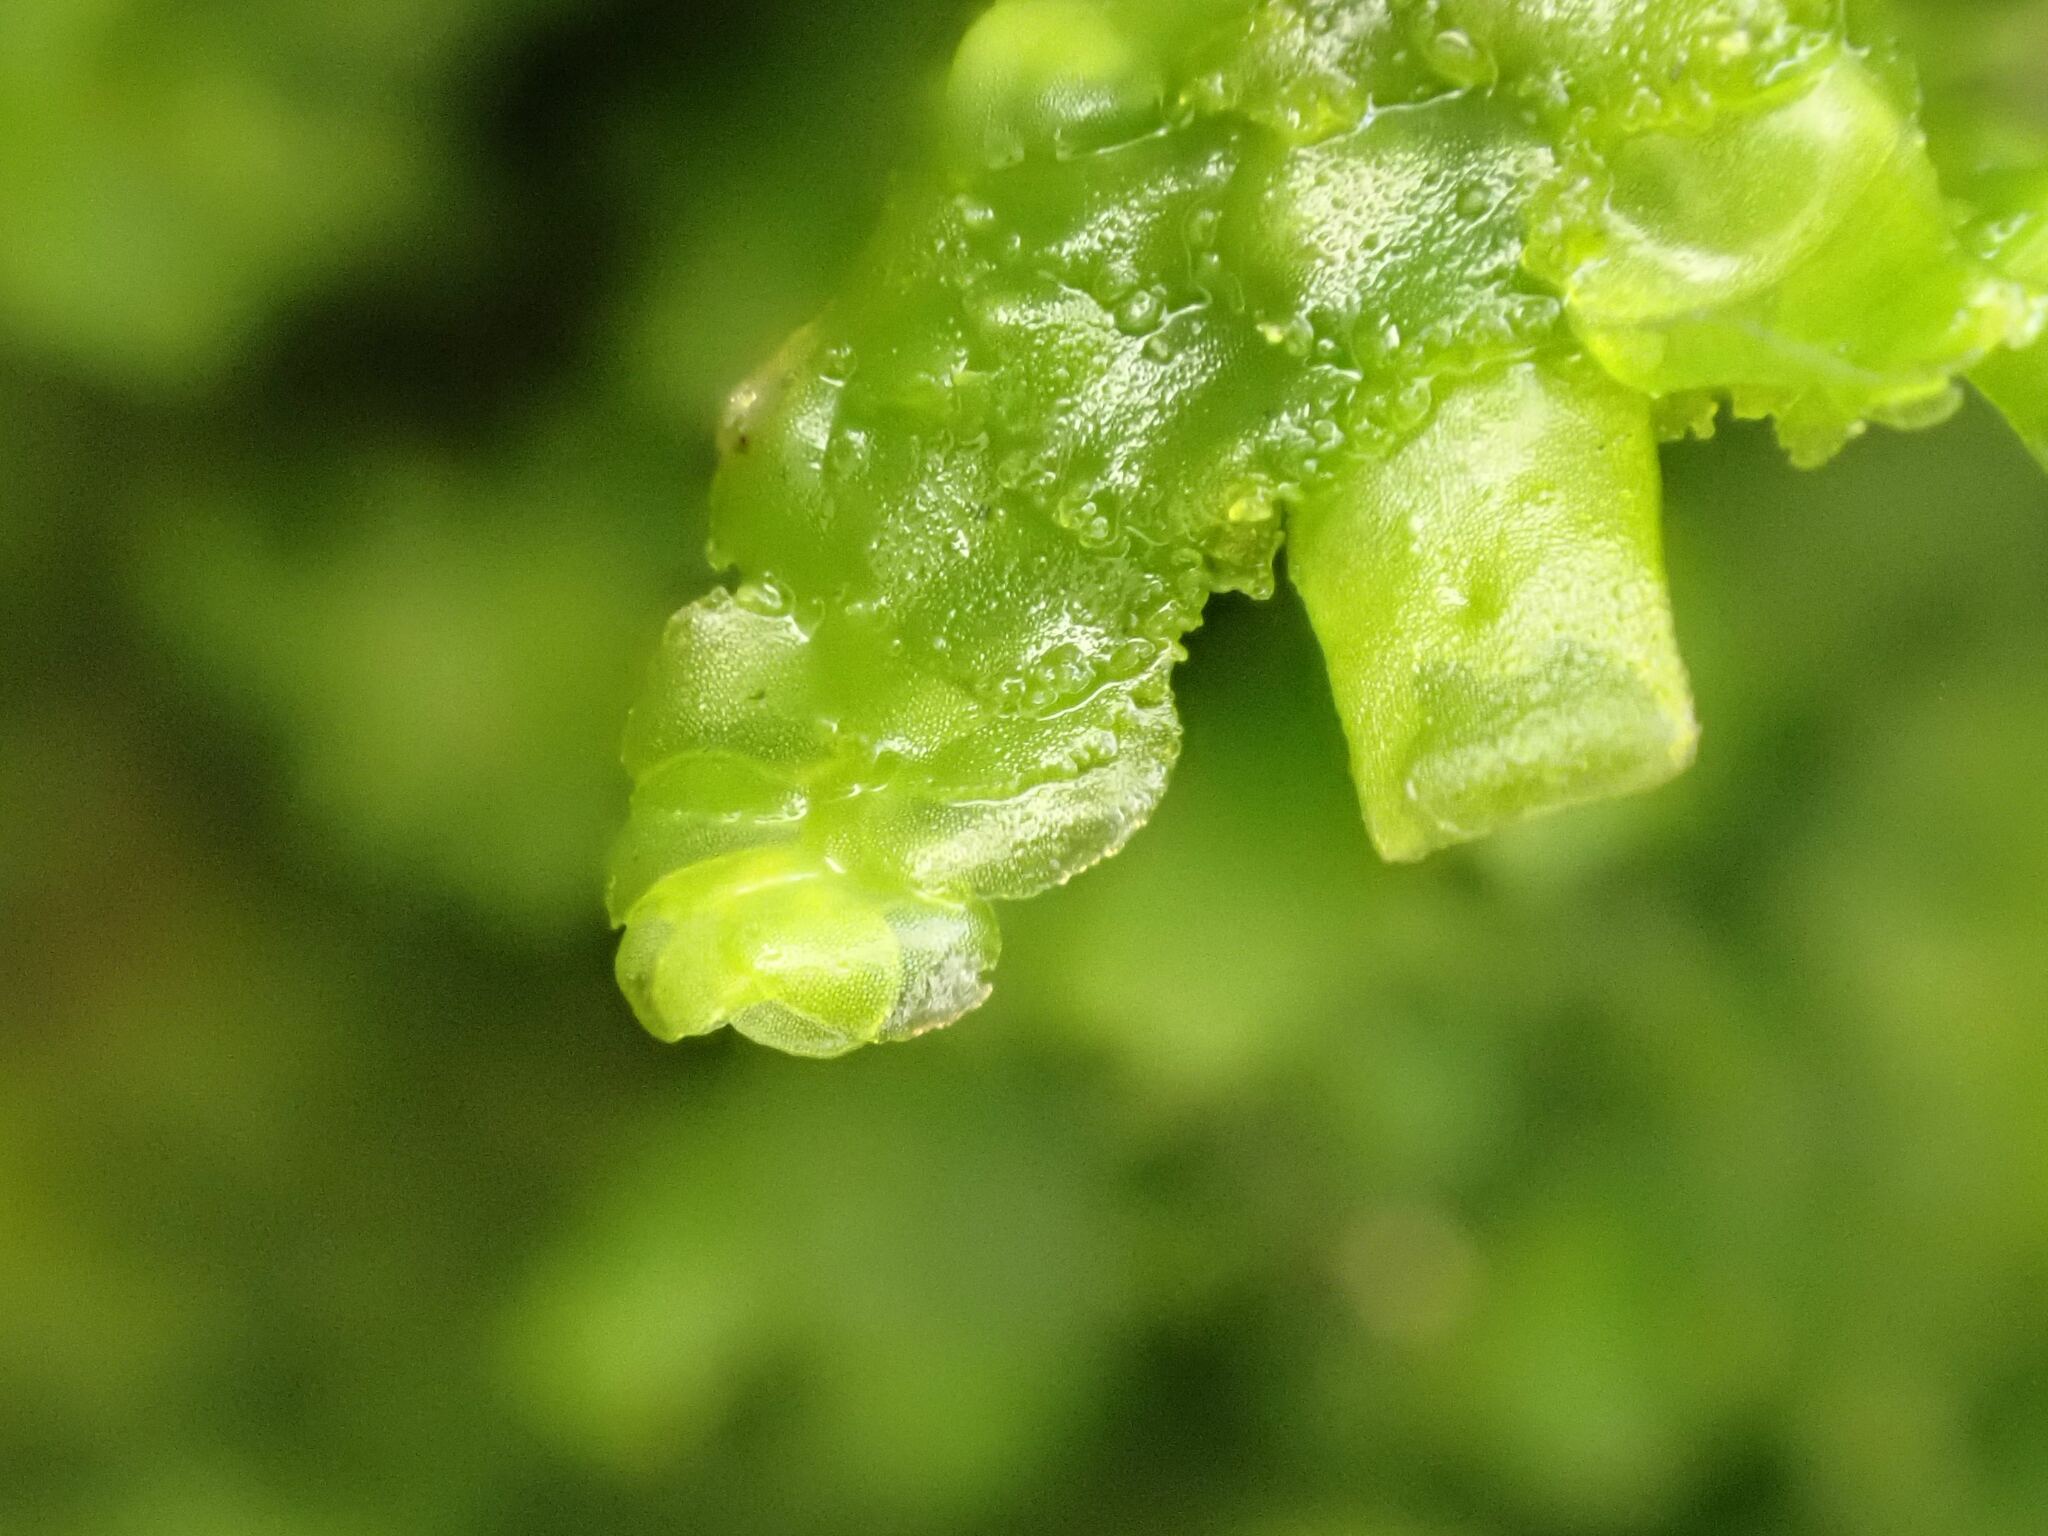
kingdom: Plantae
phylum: Marchantiophyta
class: Jungermanniopsida
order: Porellales
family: Radulaceae
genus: Radula
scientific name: Radula complanata
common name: Flat-leaved scalewort
